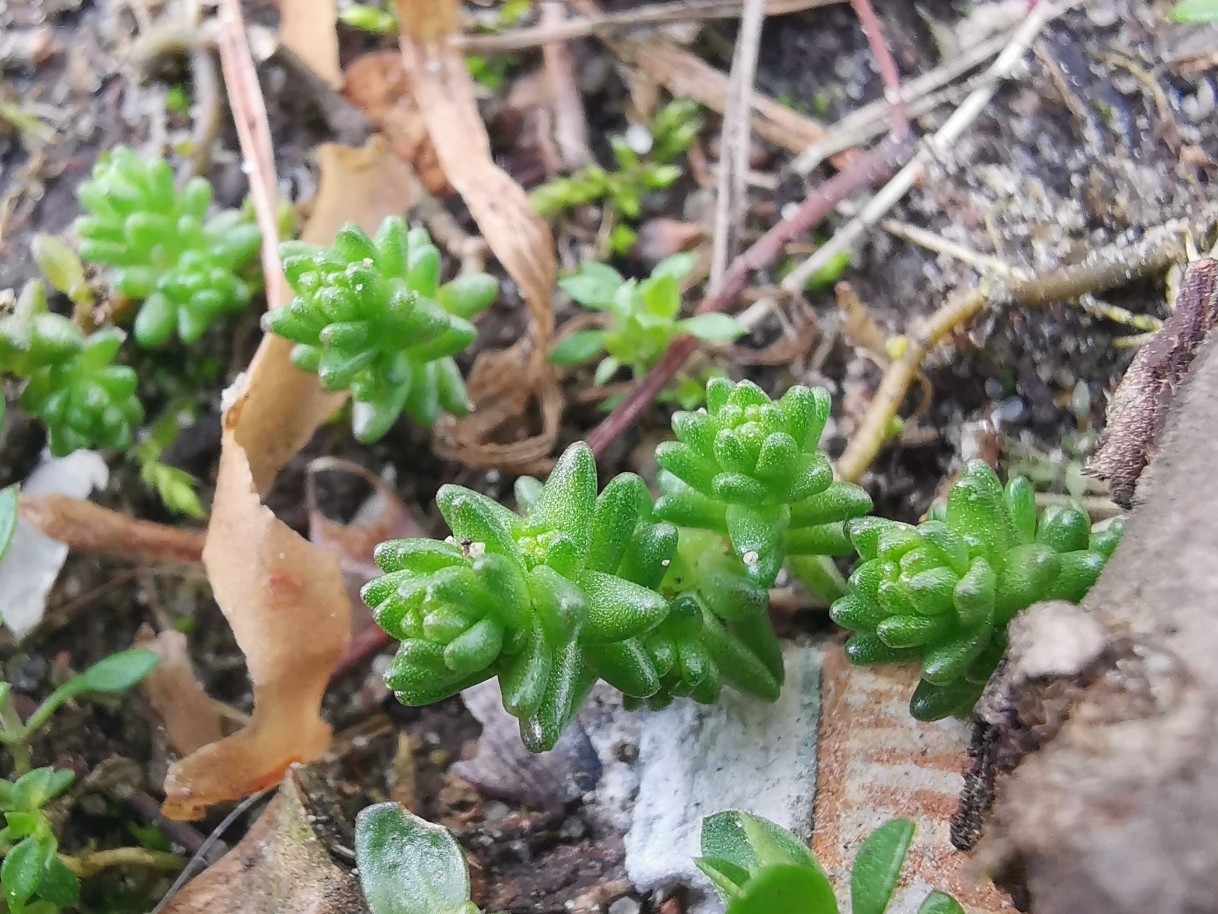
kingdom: Plantae
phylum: Tracheophyta
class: Magnoliopsida
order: Saxifragales
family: Crassulaceae
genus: Sedum
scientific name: Sedum acre
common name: Biting stonecrop
